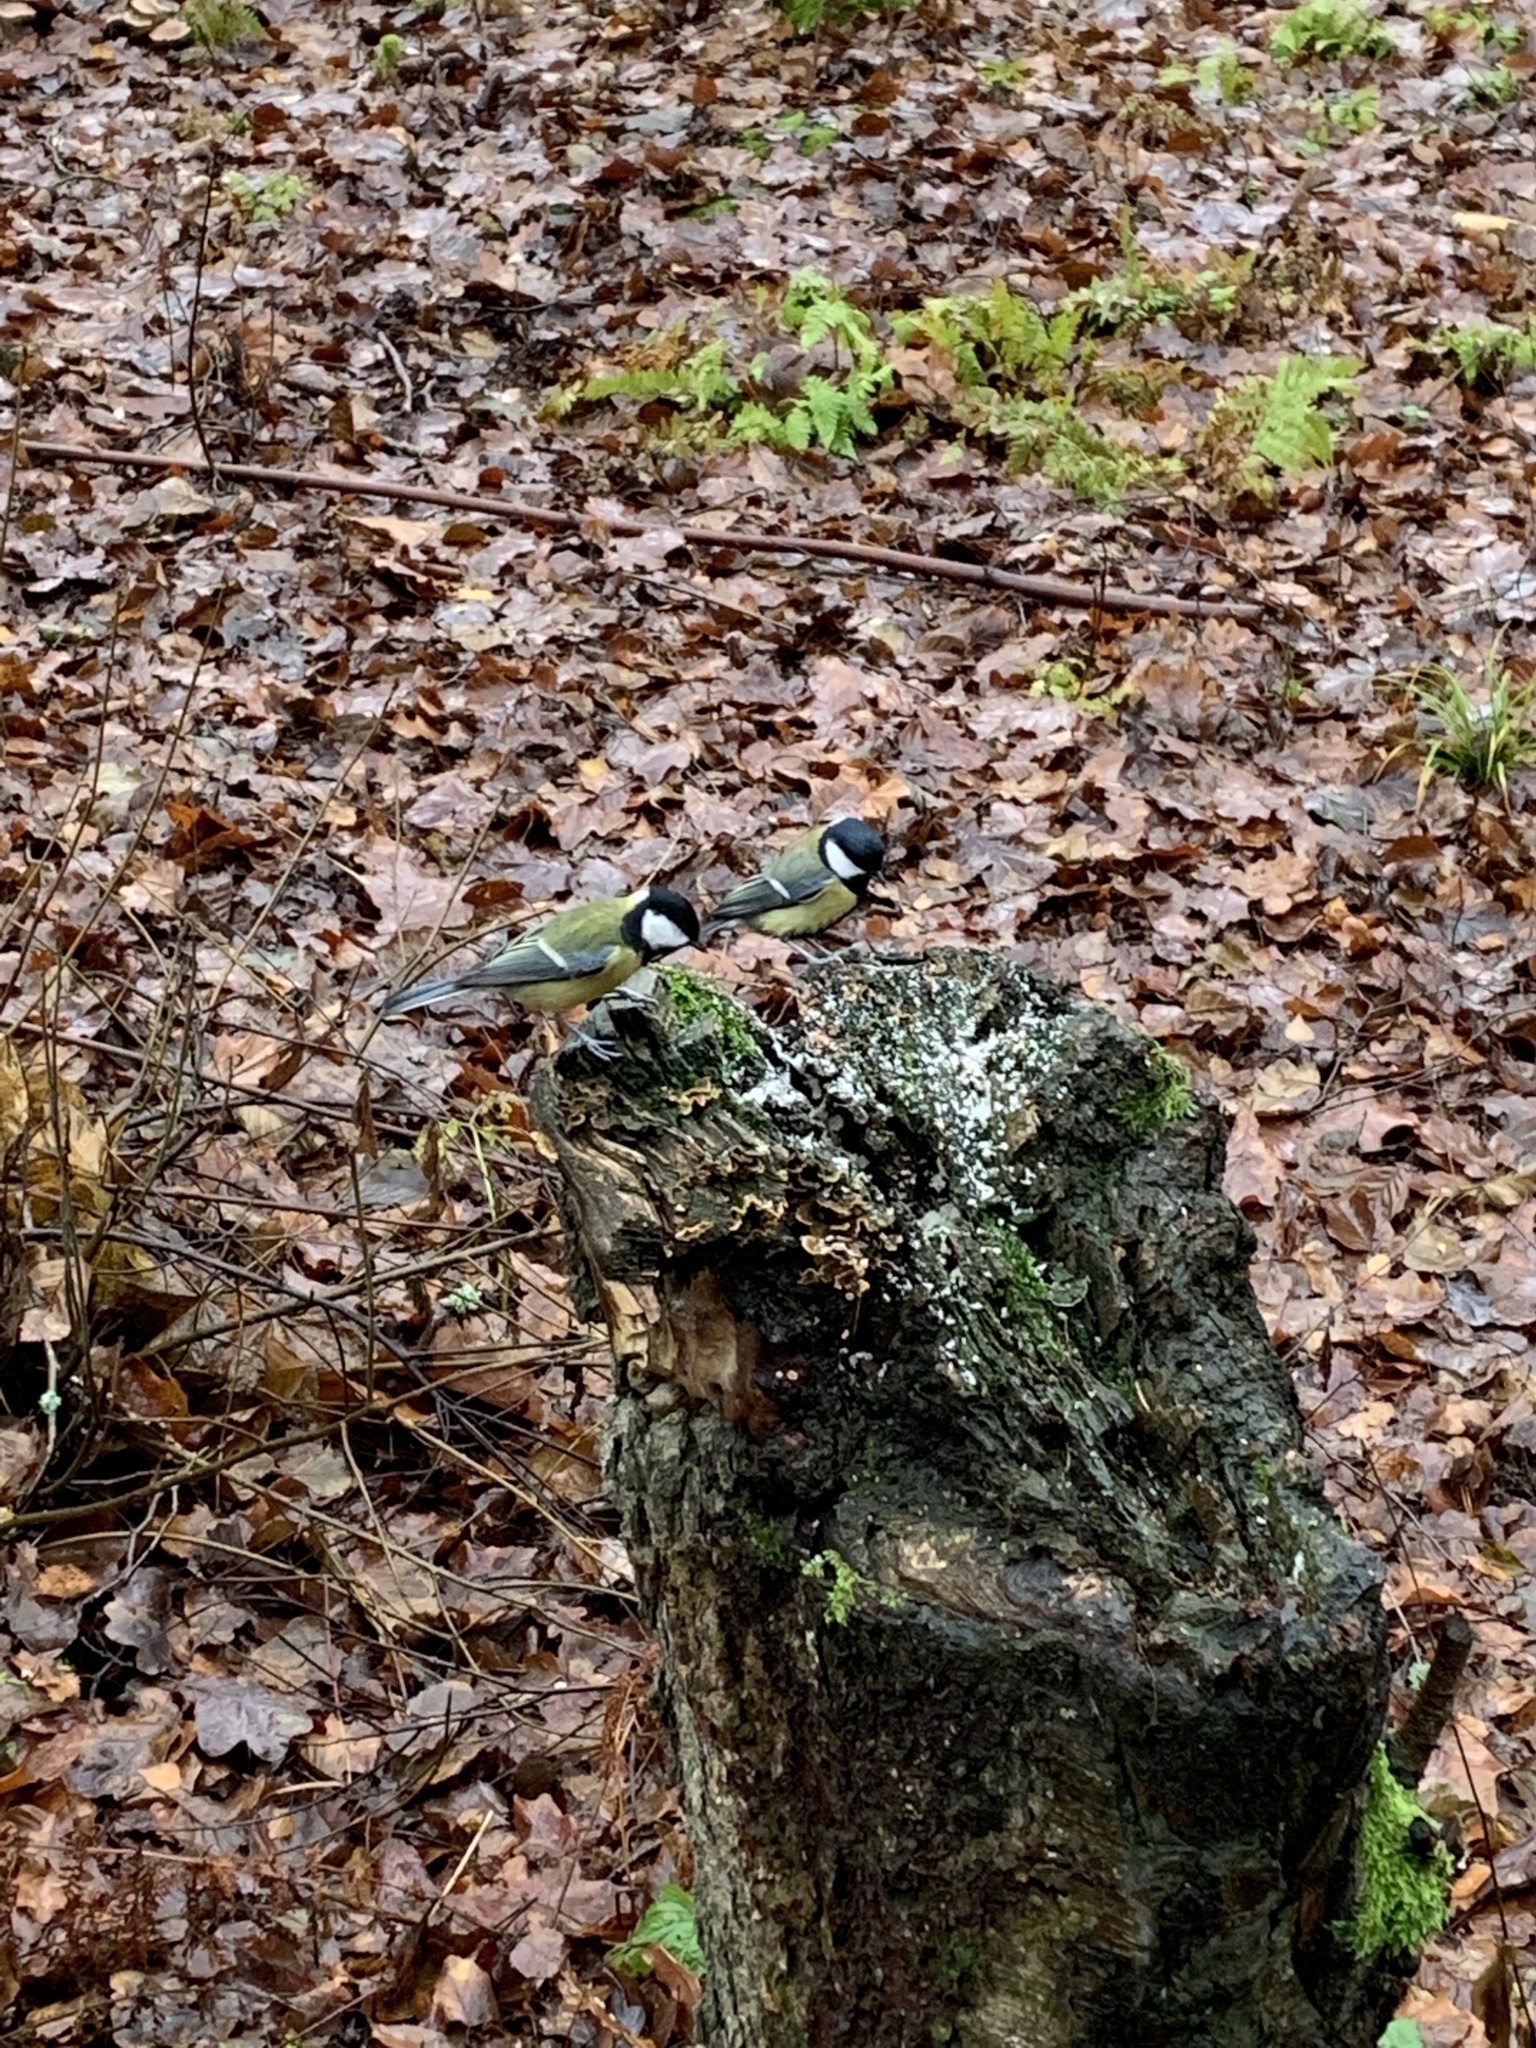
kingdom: Animalia
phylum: Chordata
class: Aves
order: Passeriformes
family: Paridae
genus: Parus
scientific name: Parus major
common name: Great tit
